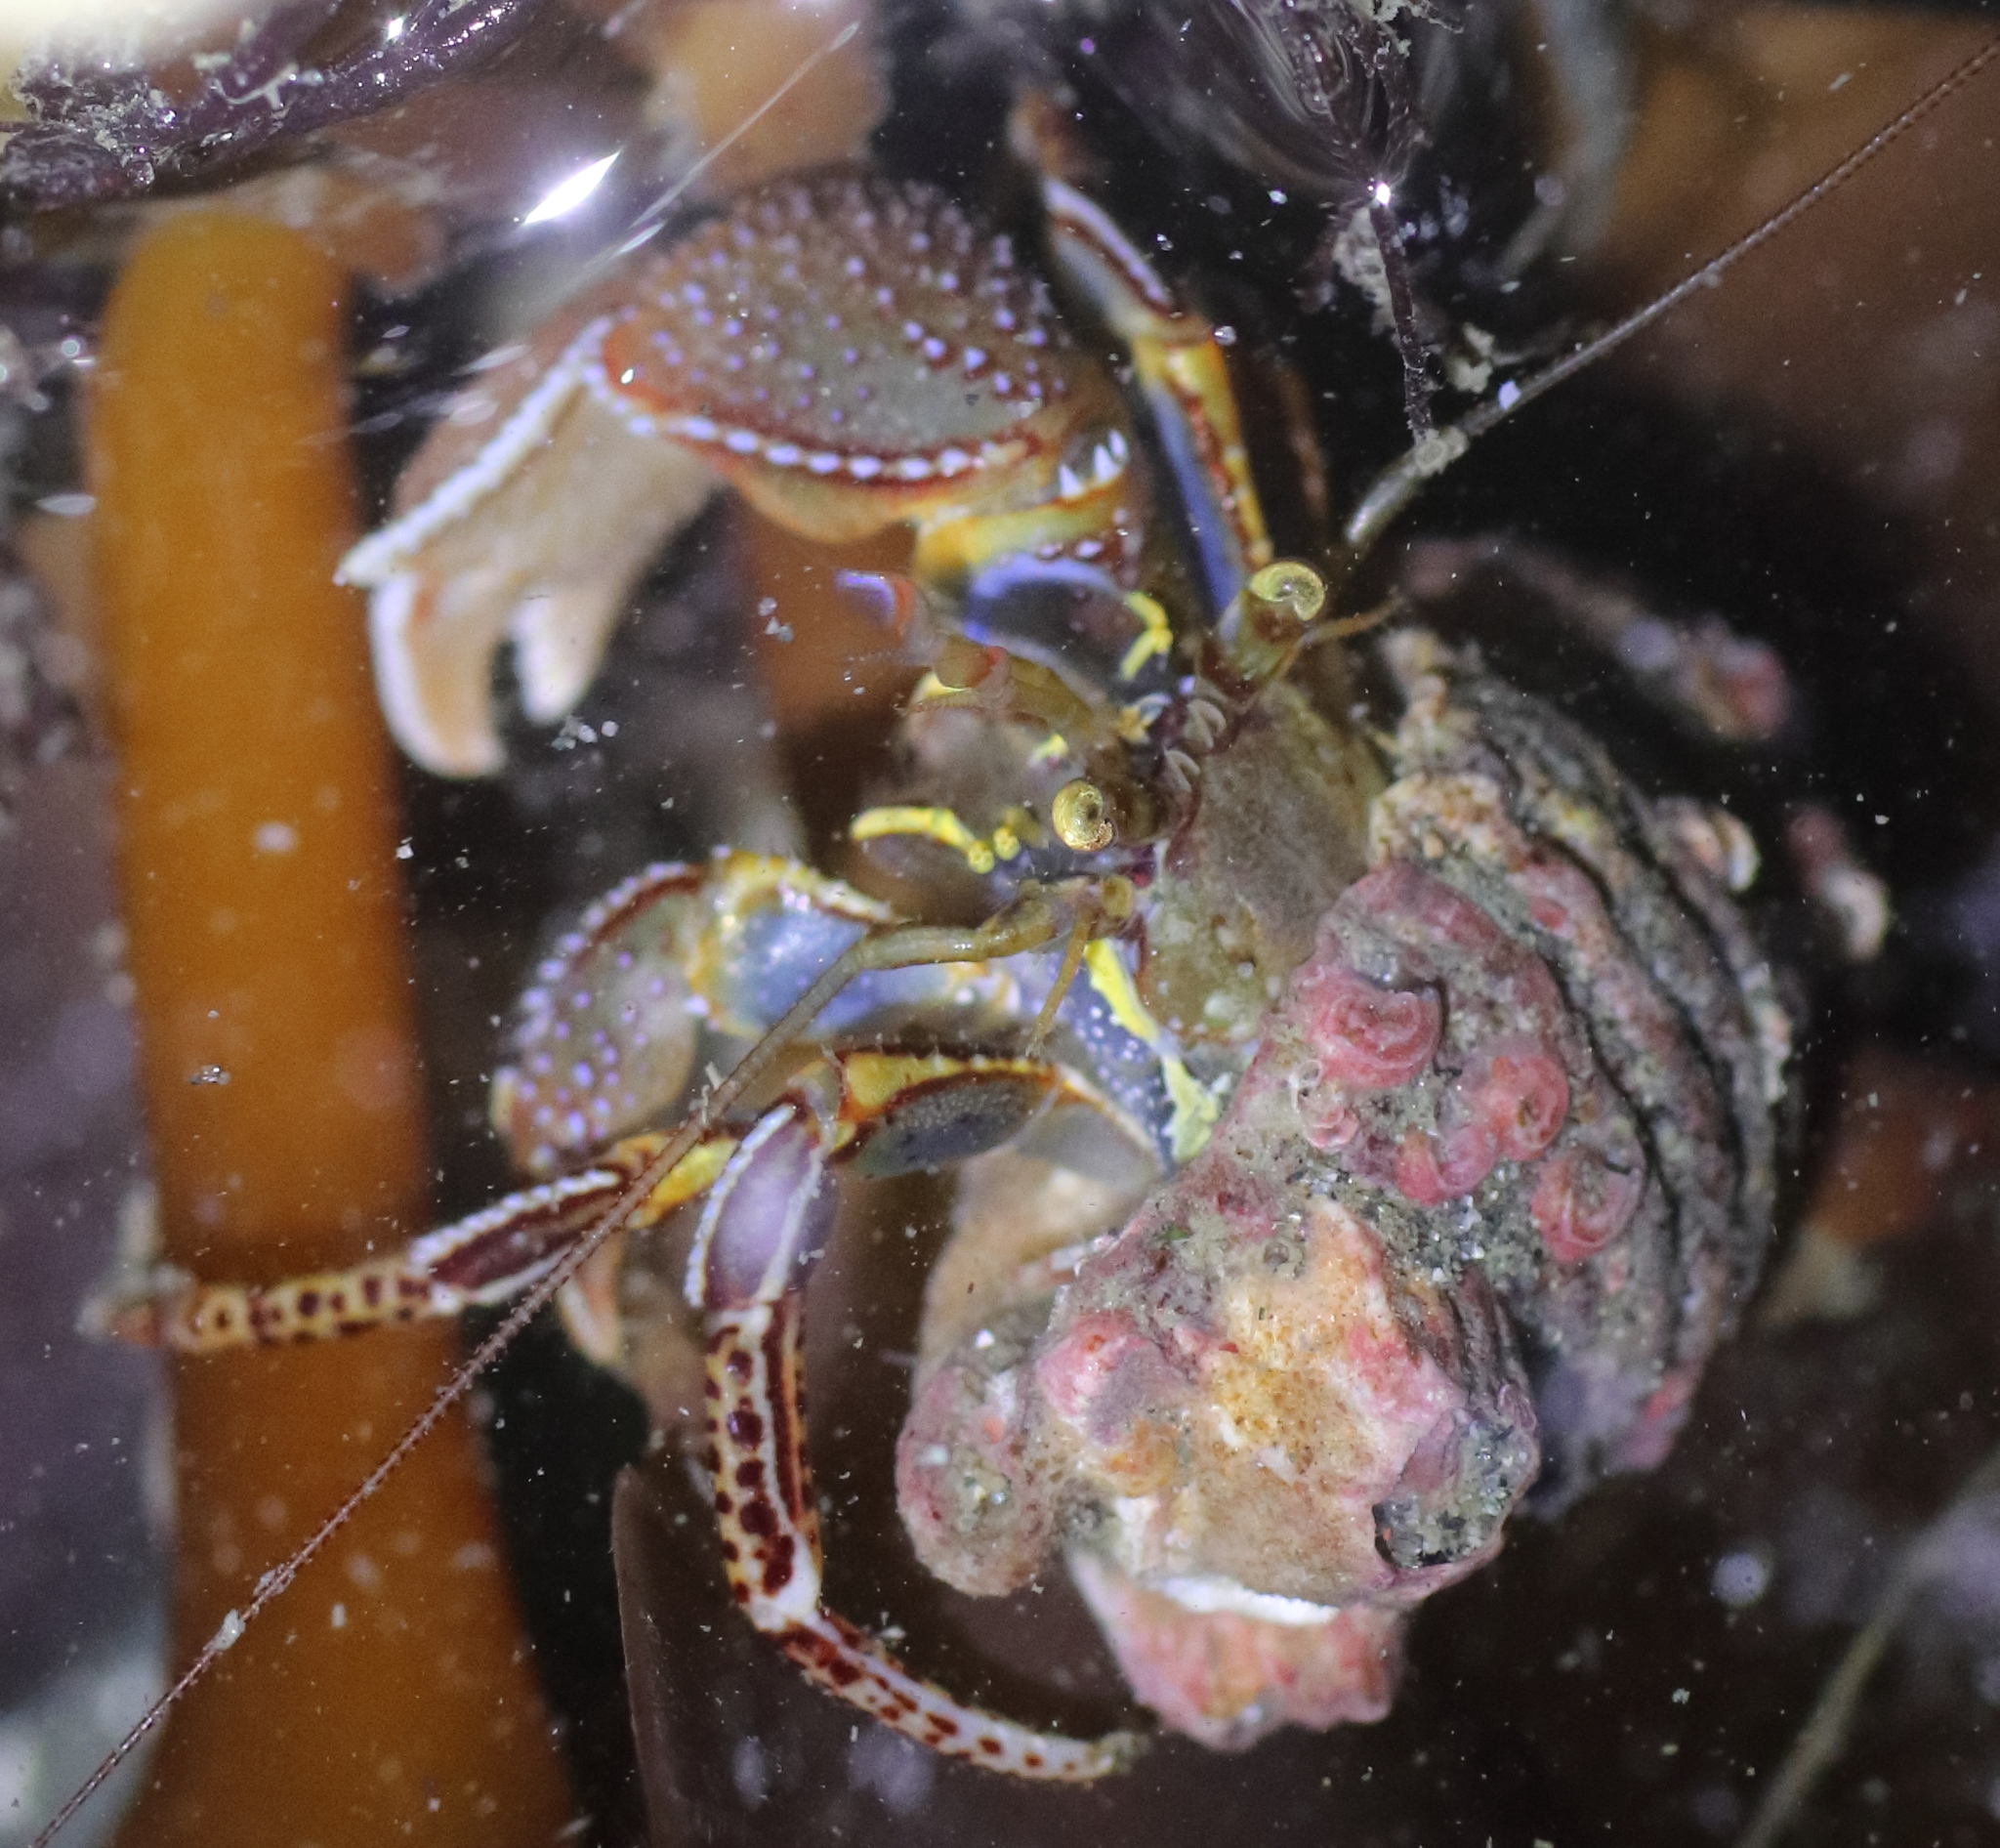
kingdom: Animalia
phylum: Arthropoda
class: Malacostraca
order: Decapoda
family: Paguridae
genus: Elassochirus
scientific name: Elassochirus tenuimanus
